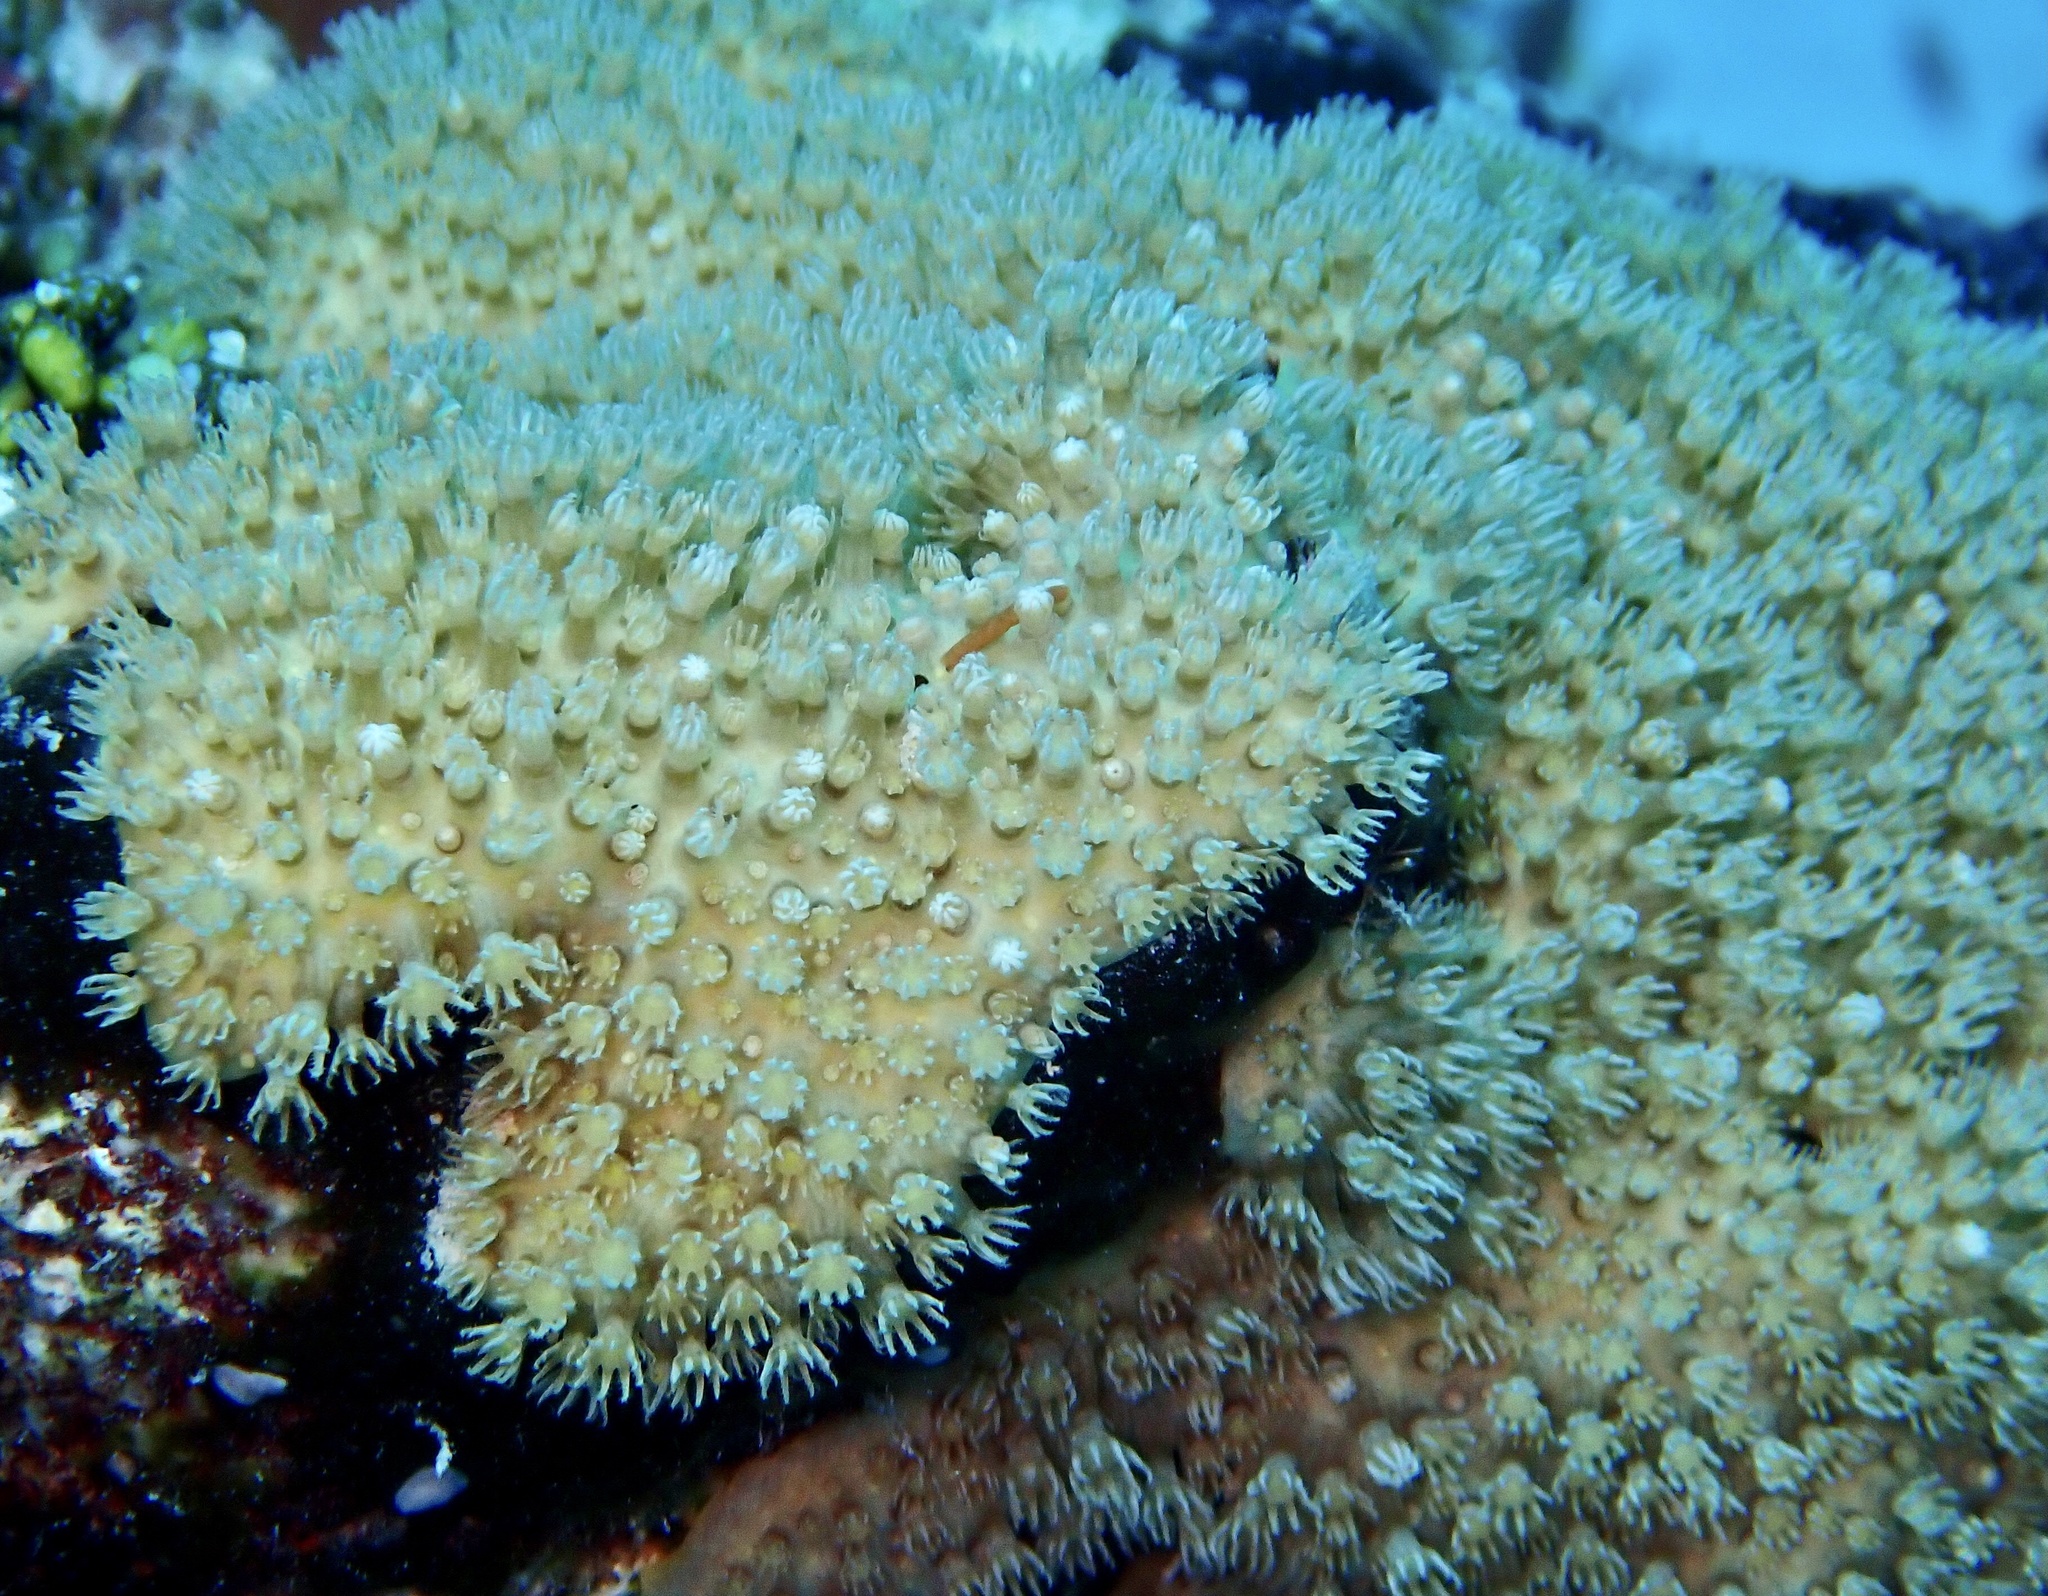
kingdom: Animalia
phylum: Cnidaria
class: Anthozoa
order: Malacalcyonacea
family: Lemnaliadae
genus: Rhytisma
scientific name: Rhytisma fulvum
